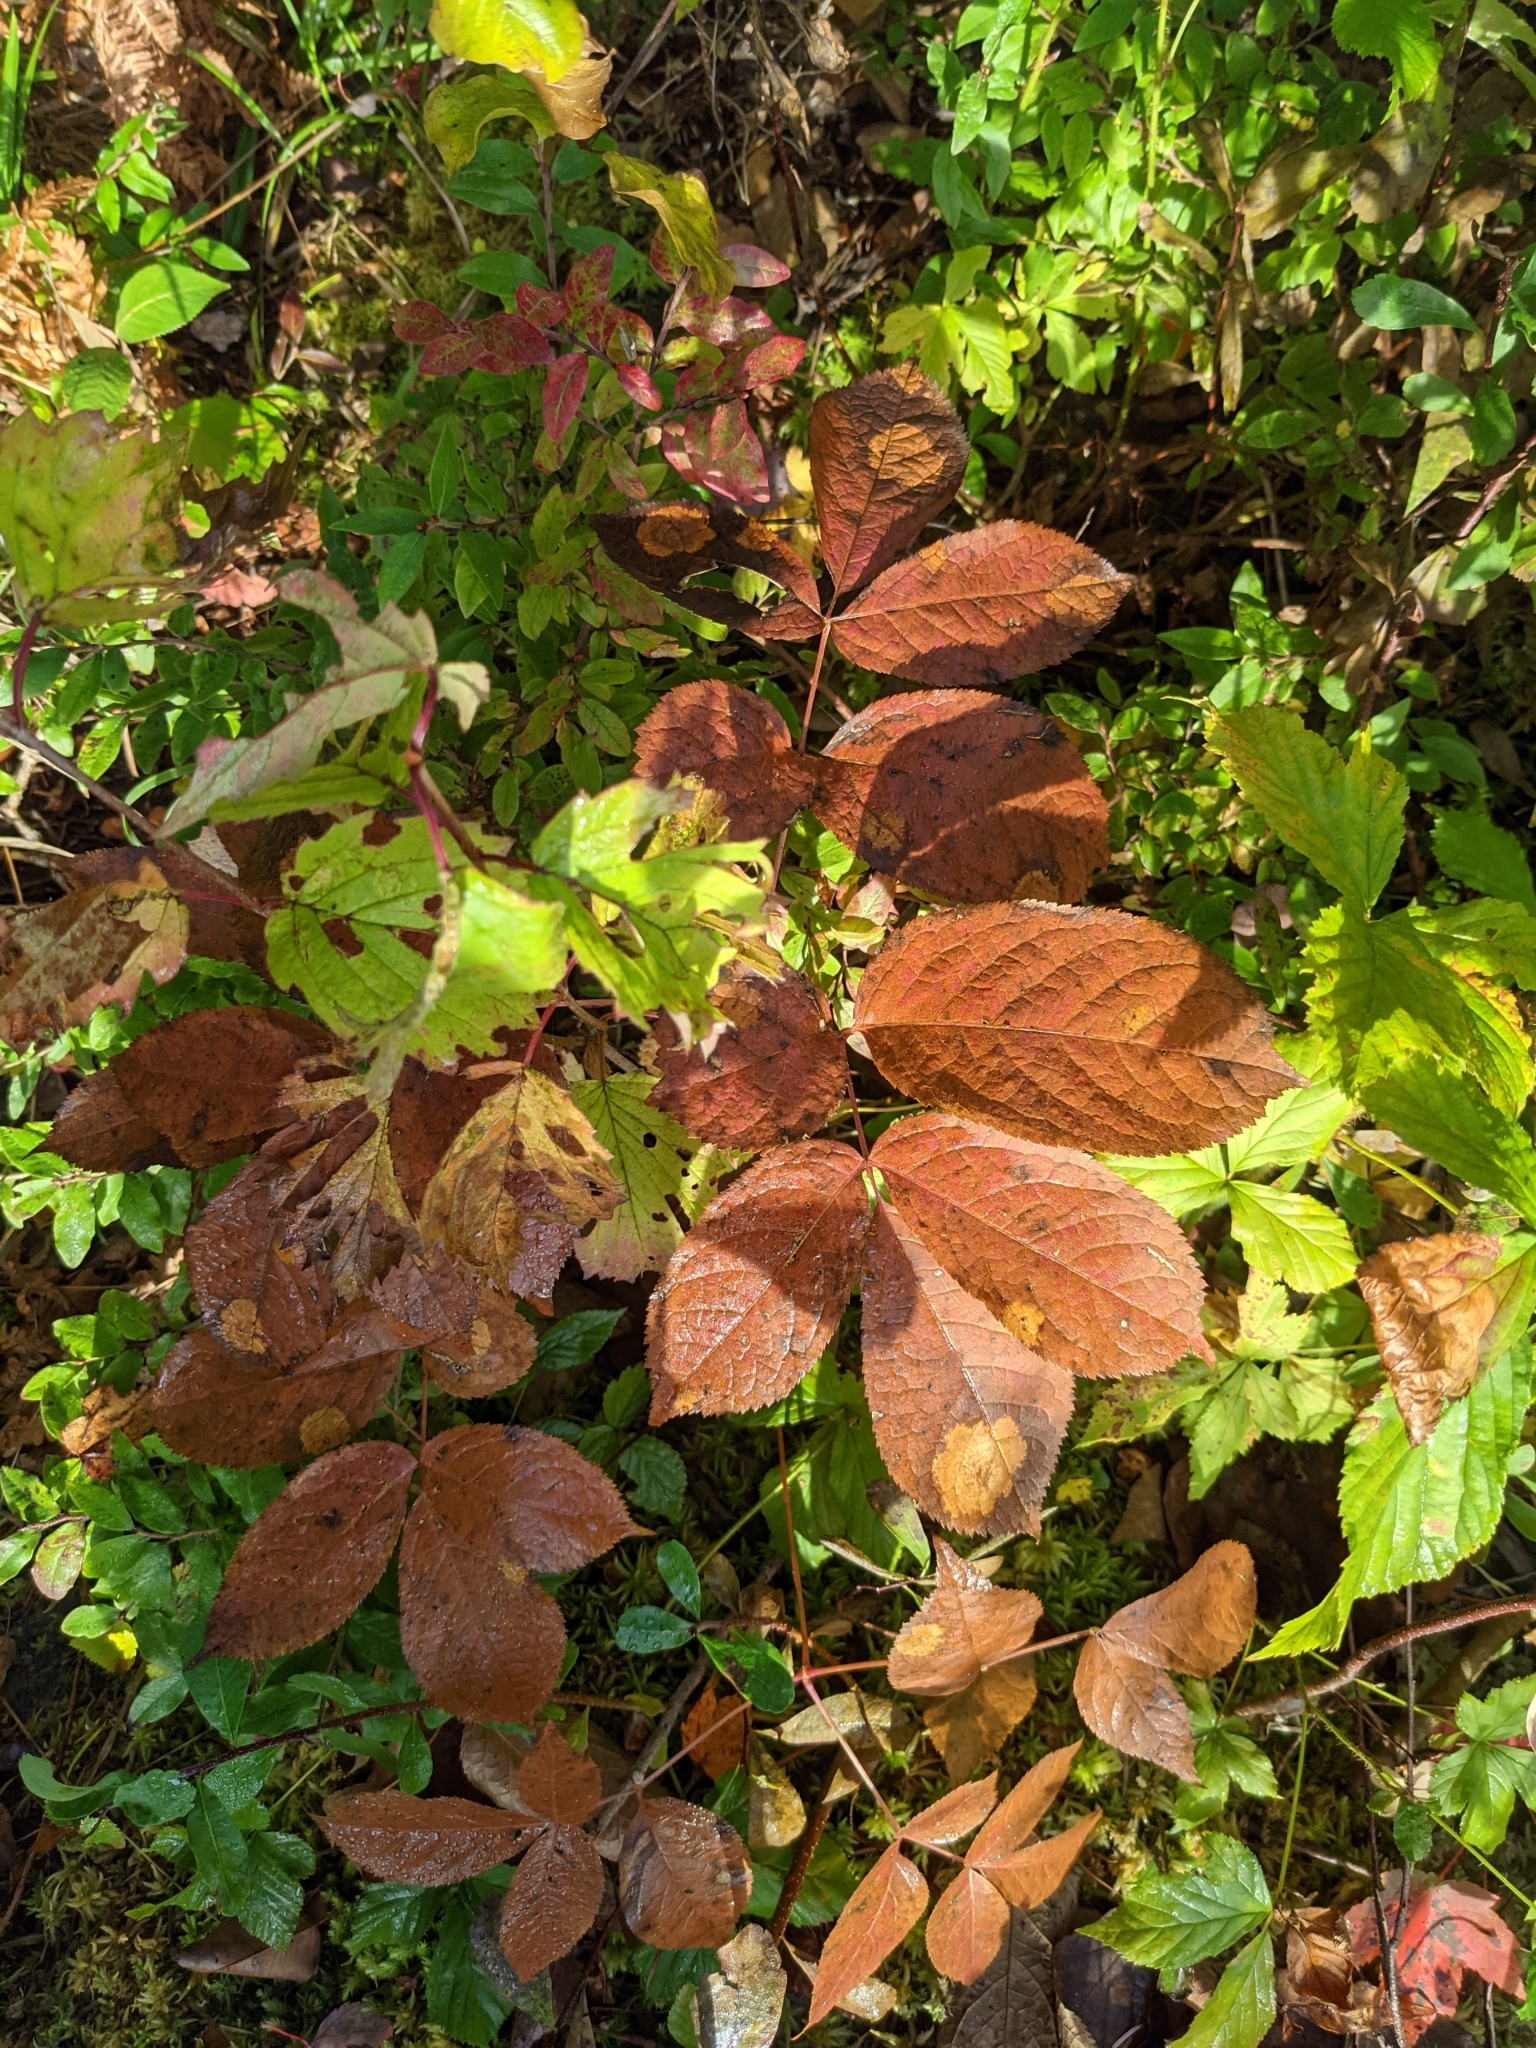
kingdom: Plantae
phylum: Tracheophyta
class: Magnoliopsida
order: Apiales
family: Araliaceae
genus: Aralia
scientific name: Aralia nudicaulis
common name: Wild sarsaparilla
